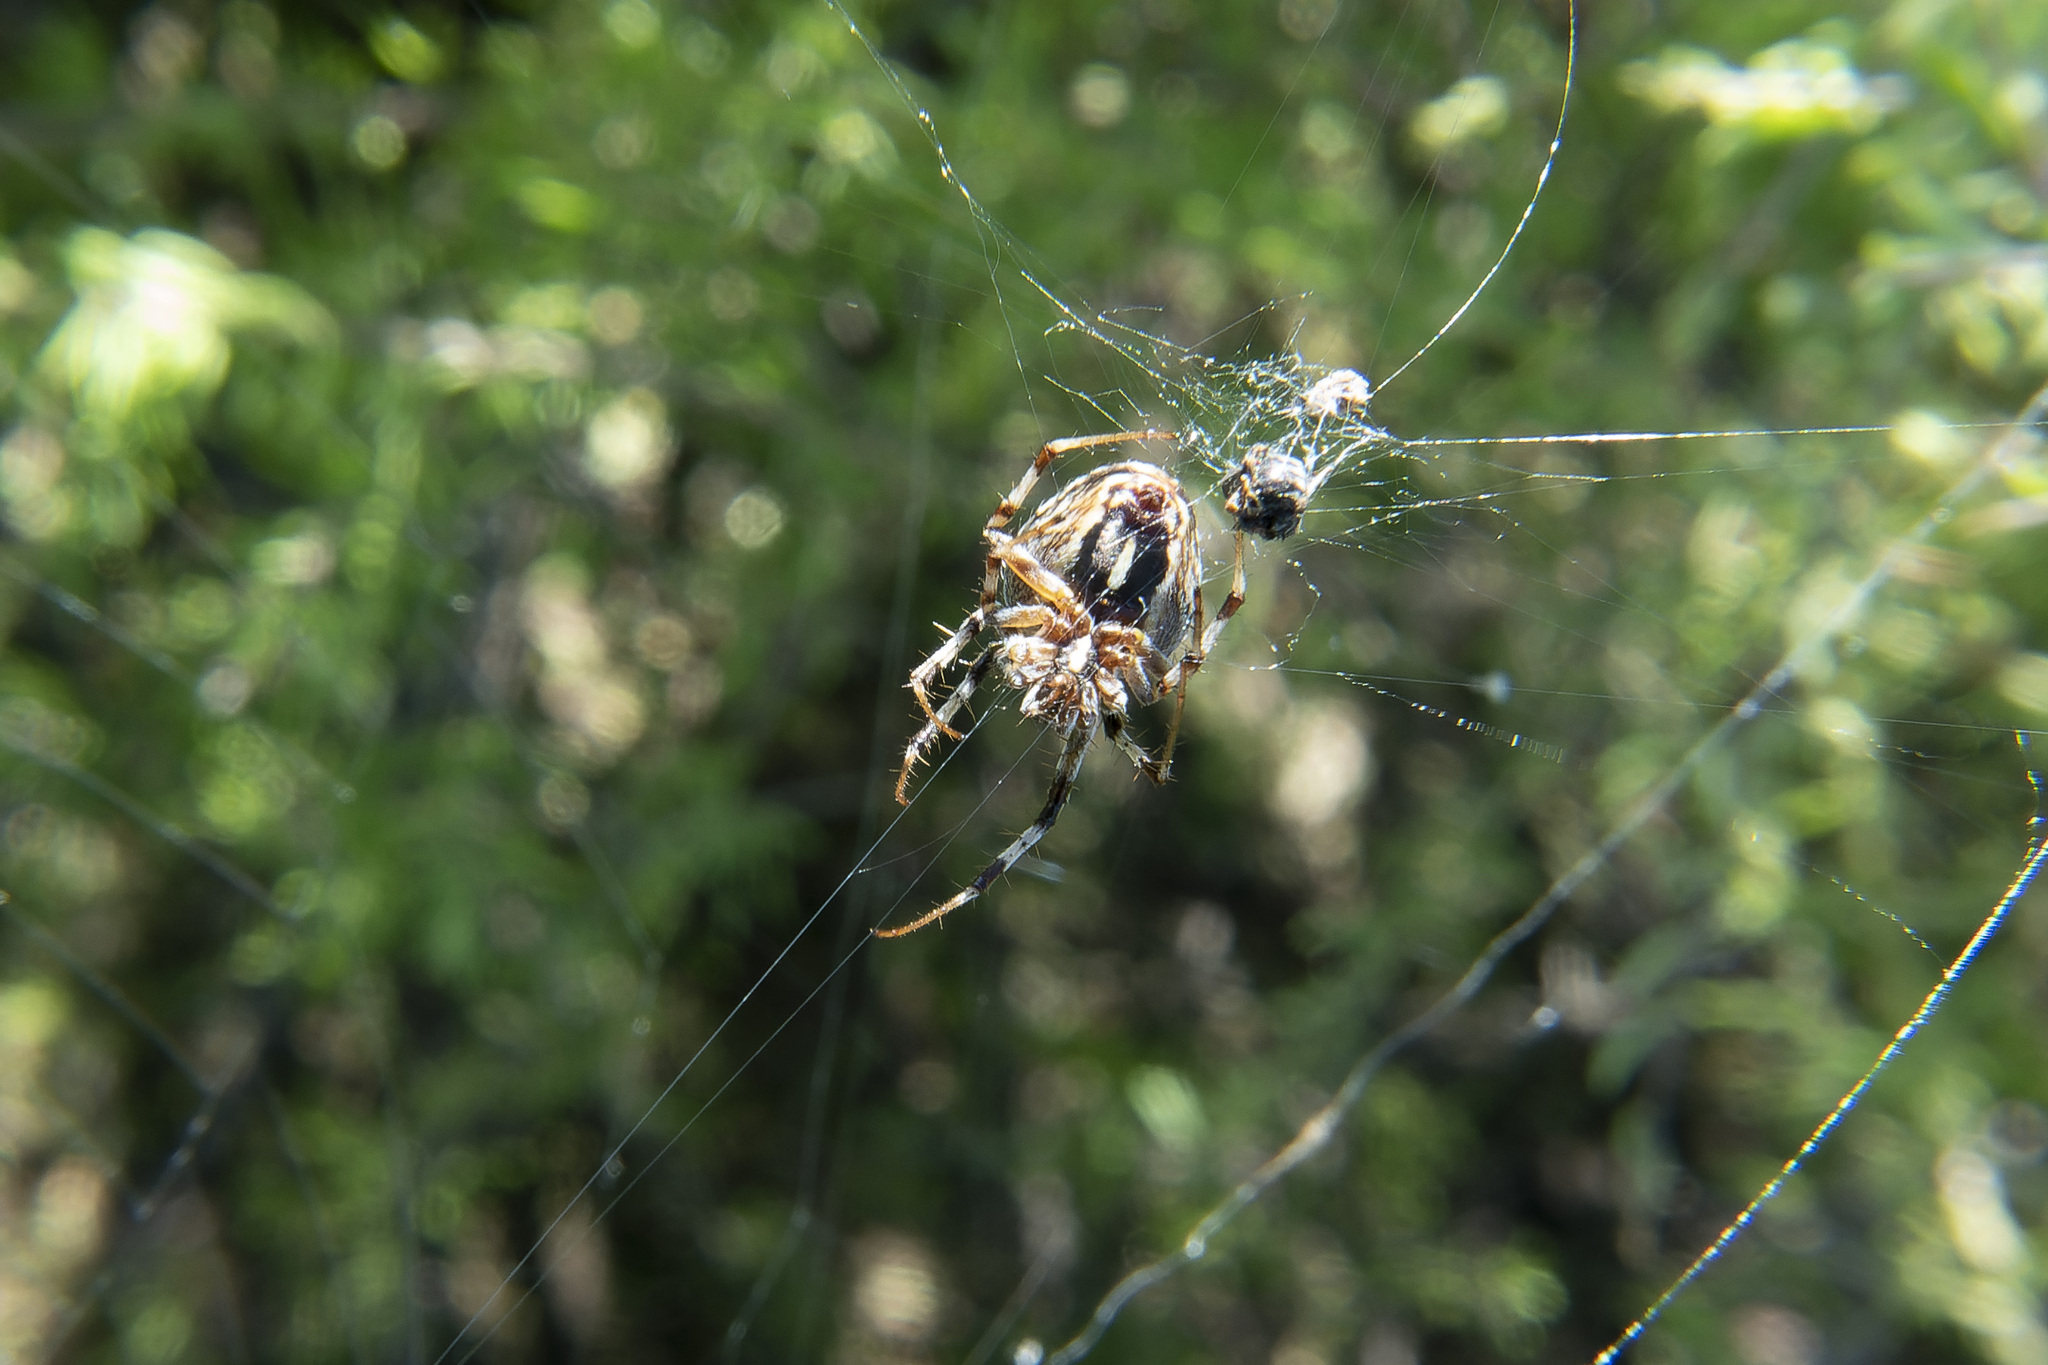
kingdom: Animalia
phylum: Arthropoda
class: Arachnida
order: Araneae
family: Araneidae
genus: Metepeira
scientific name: Metepeira
